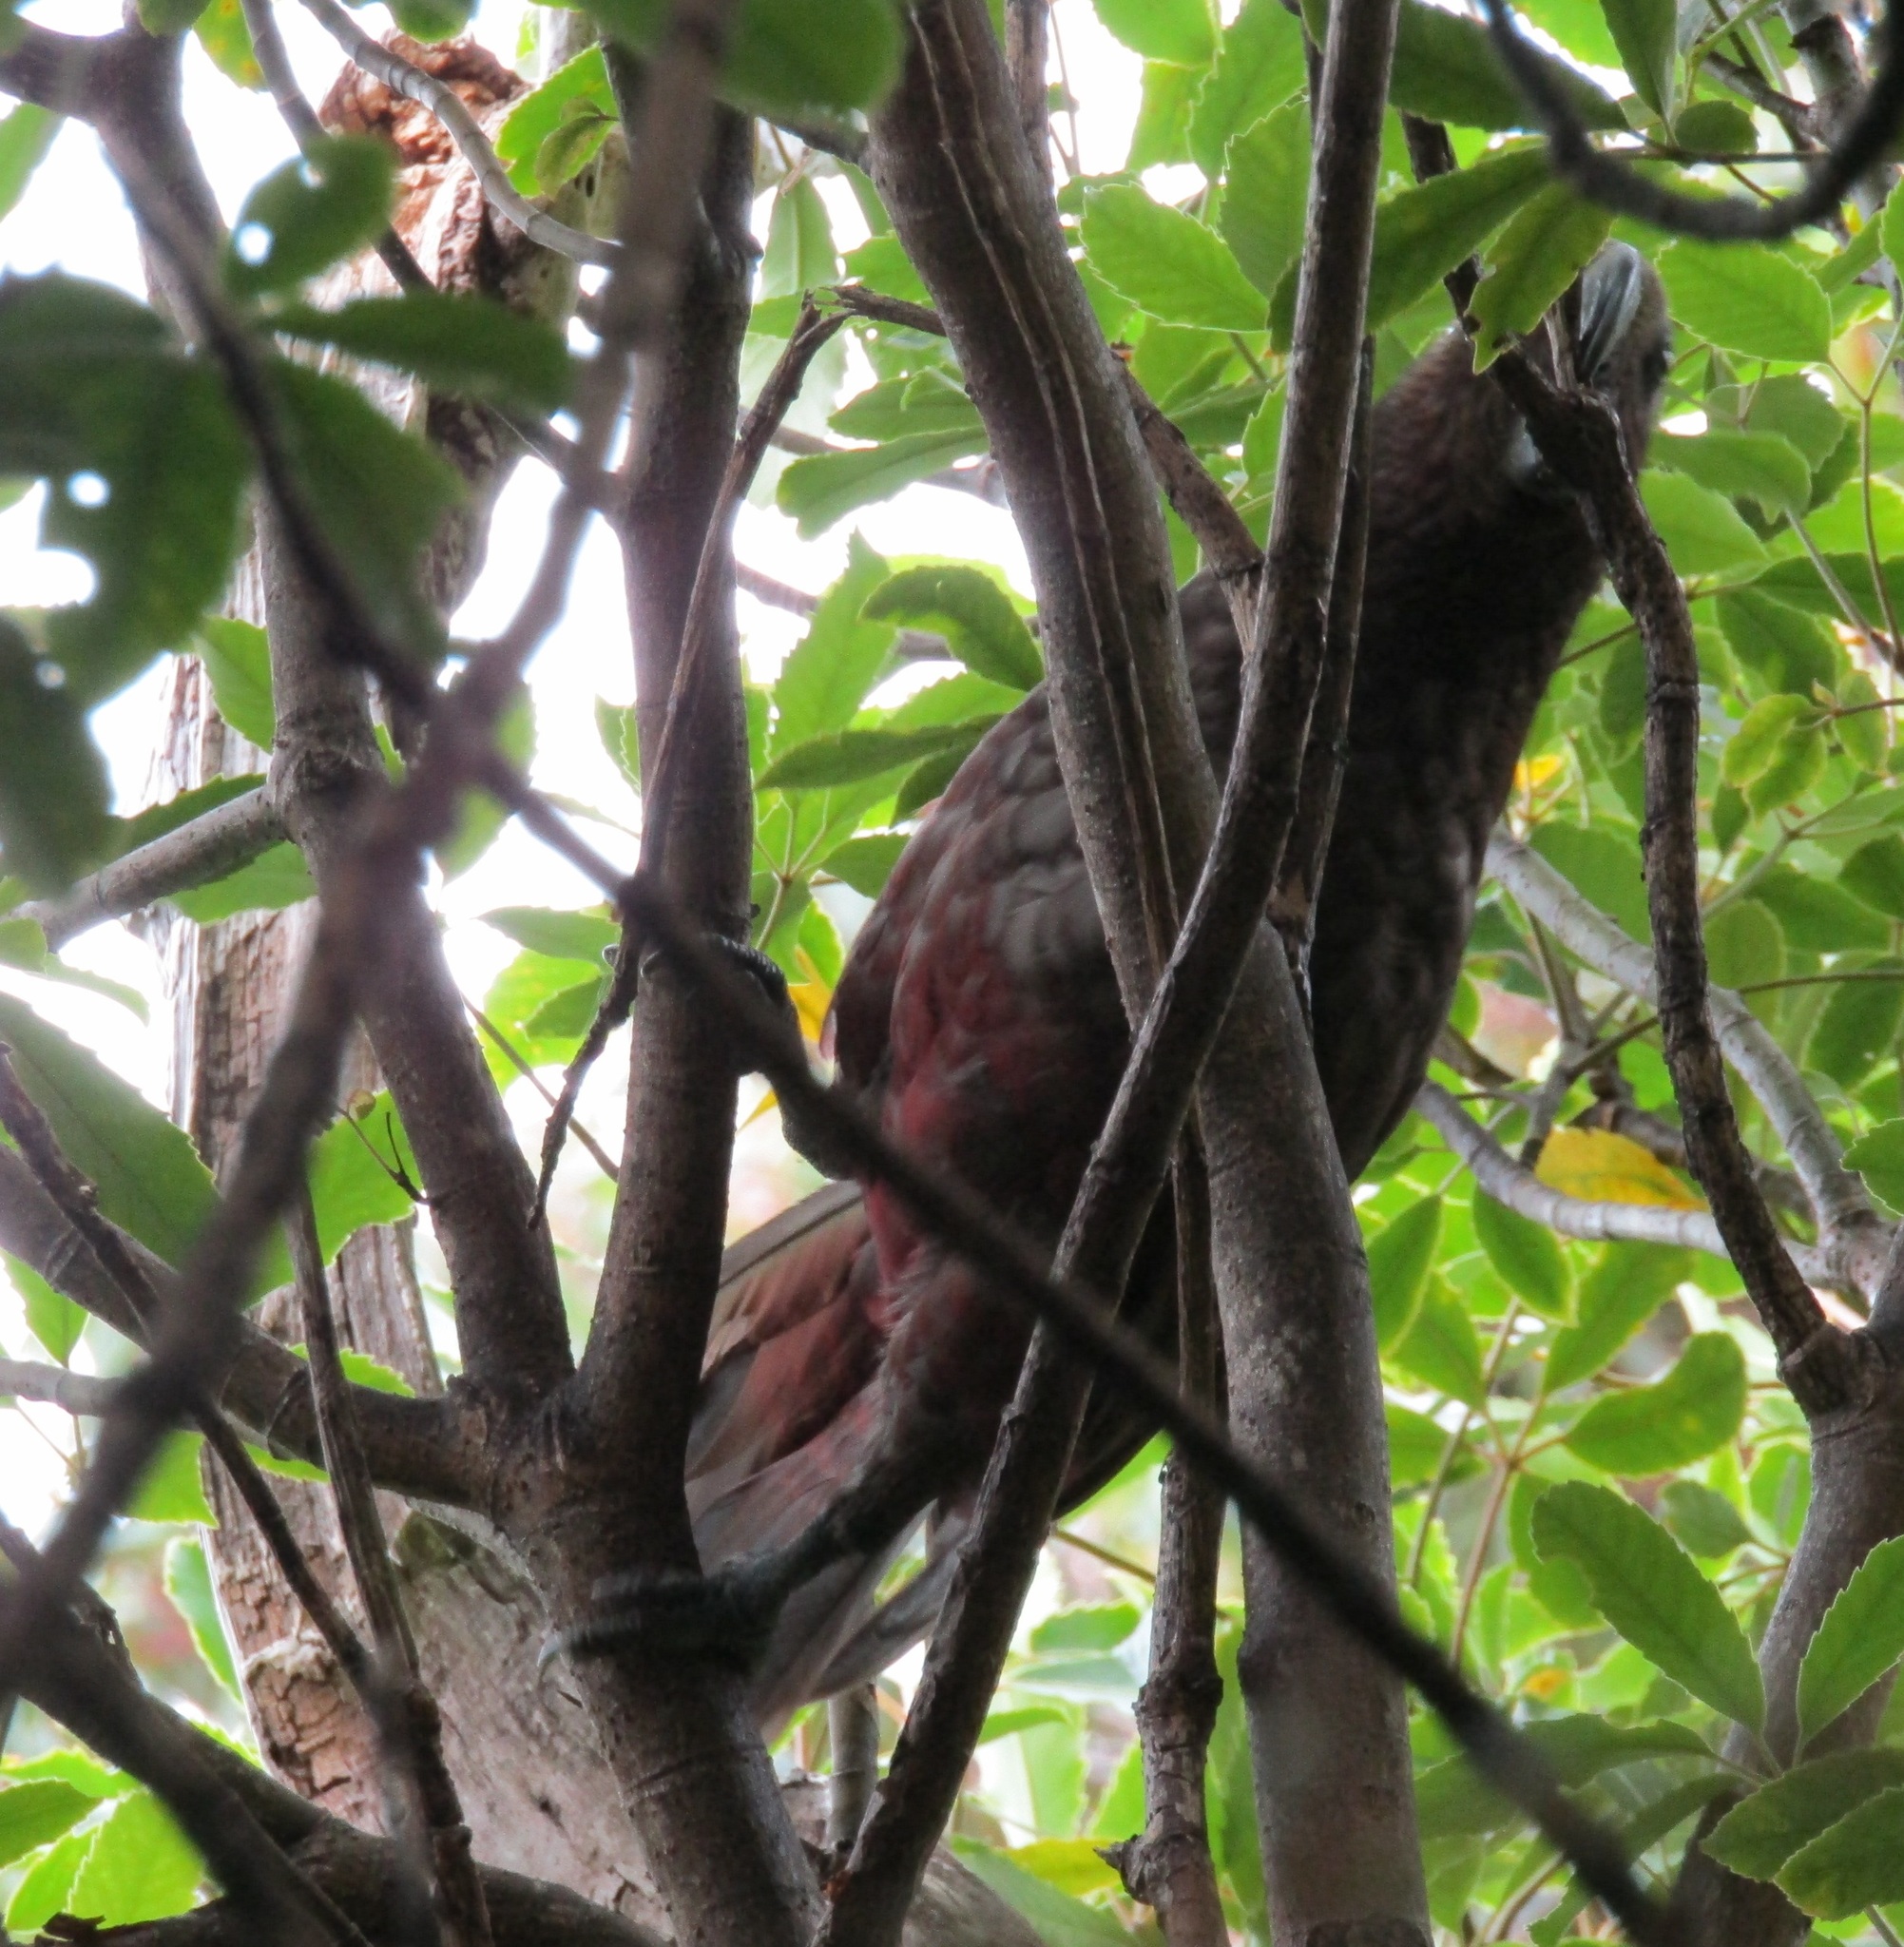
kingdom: Animalia
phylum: Chordata
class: Aves
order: Psittaciformes
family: Psittacidae
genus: Nestor
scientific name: Nestor meridionalis
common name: New zealand kaka
